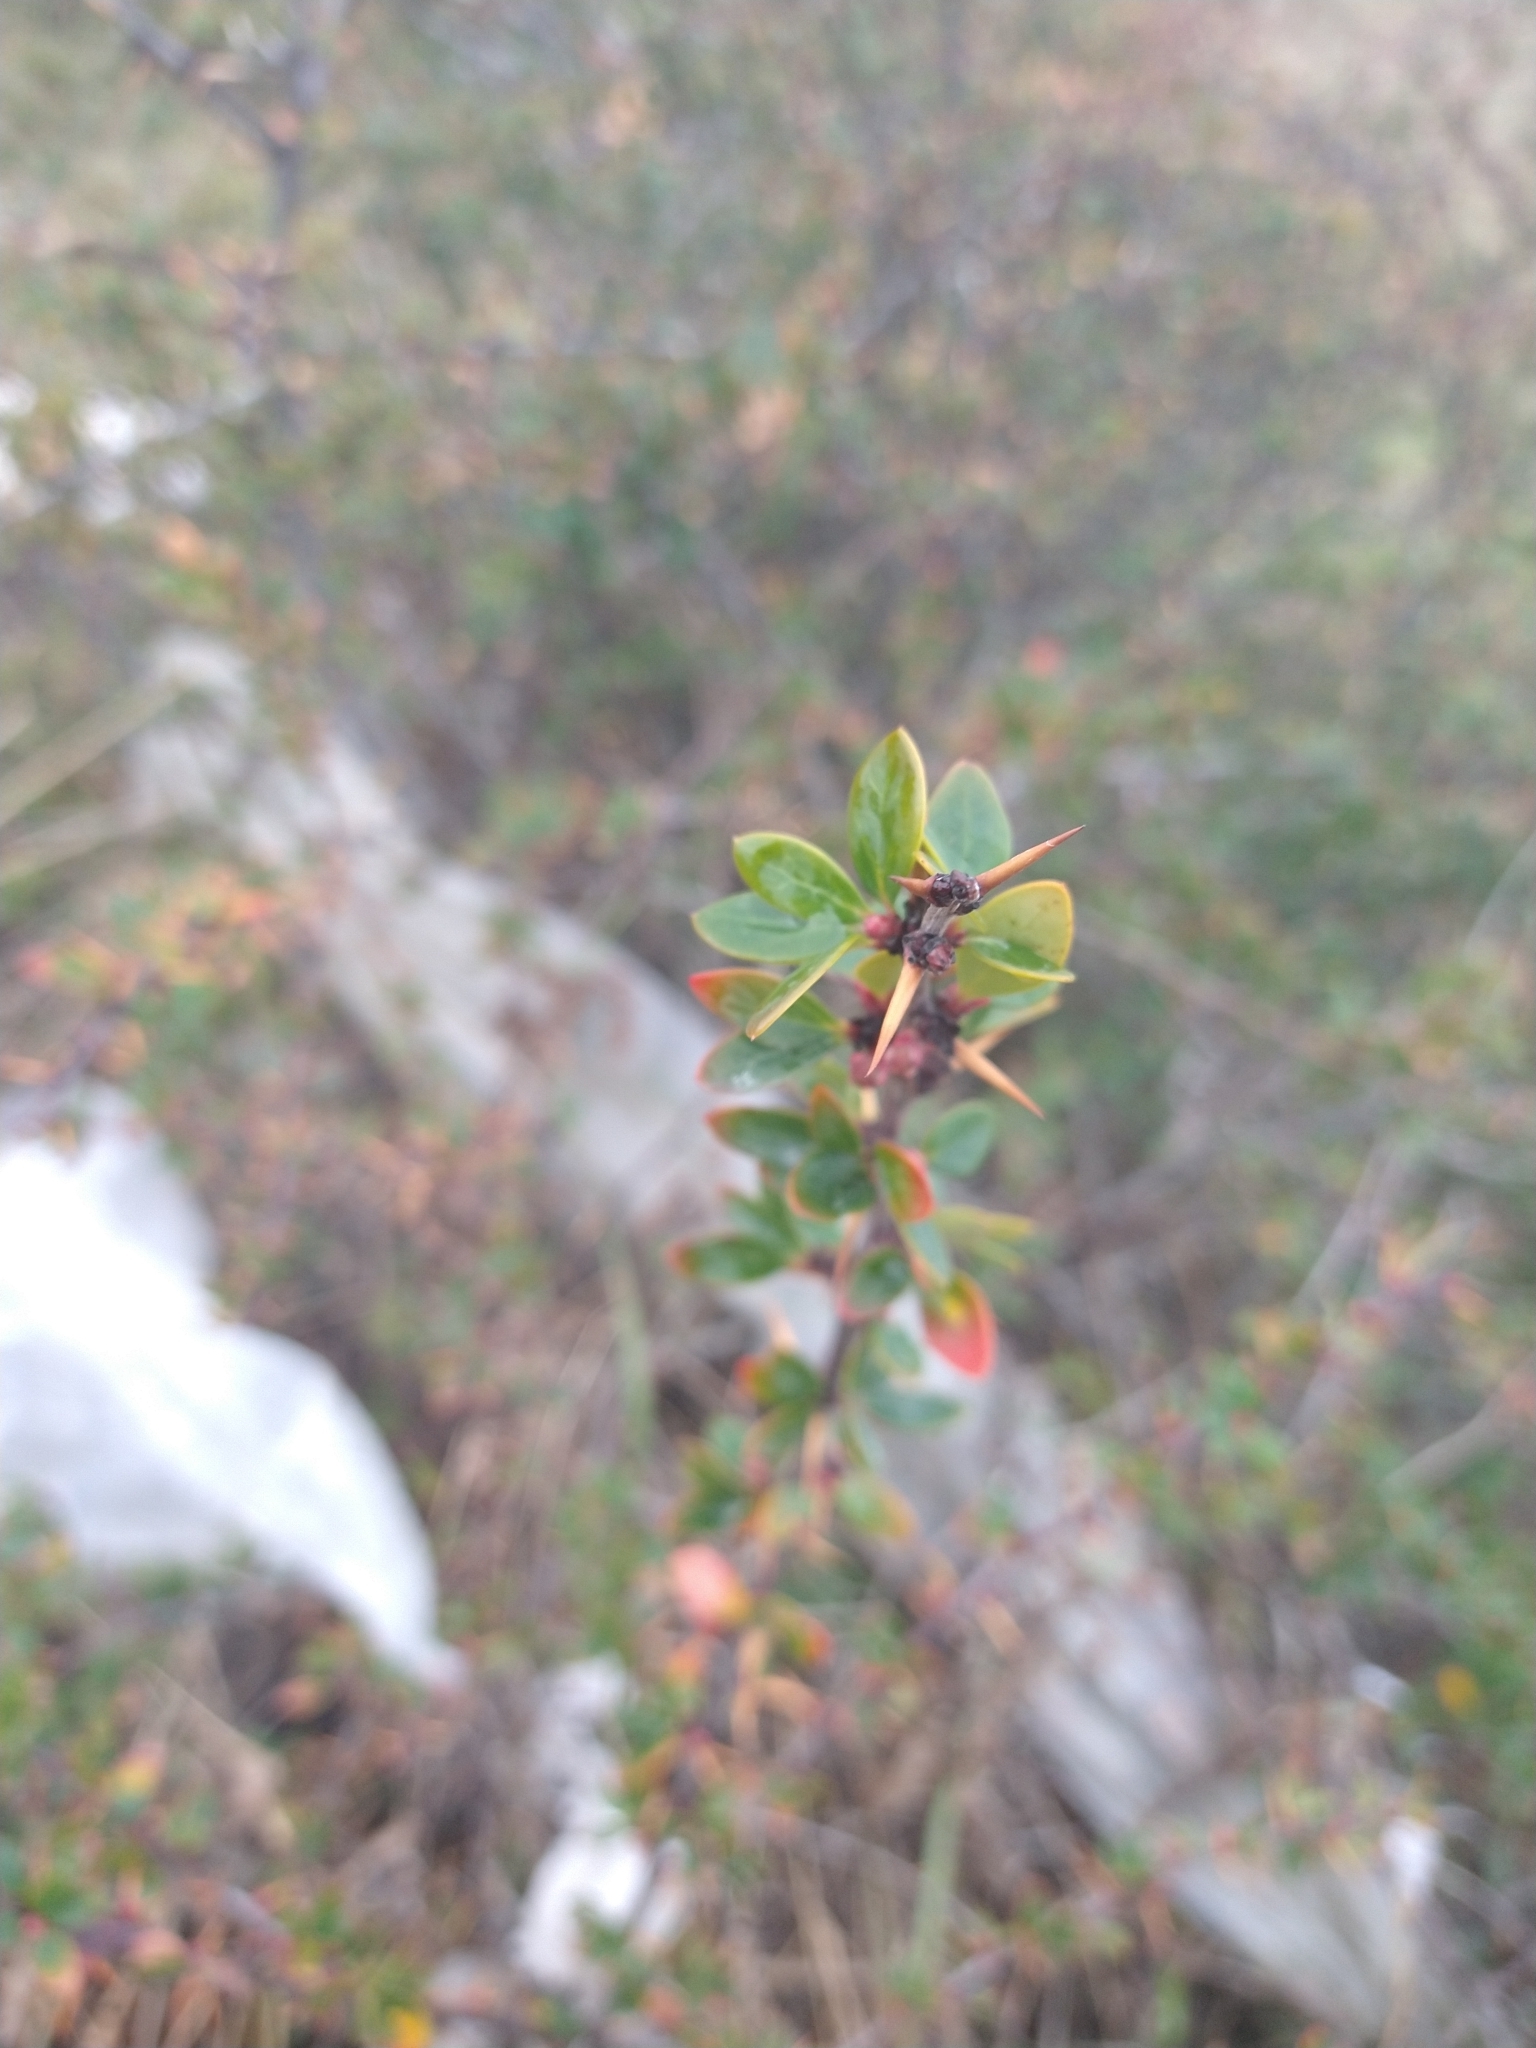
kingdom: Plantae
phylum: Tracheophyta
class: Magnoliopsida
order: Ranunculales
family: Berberidaceae
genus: Berberis
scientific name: Berberis microphylla
